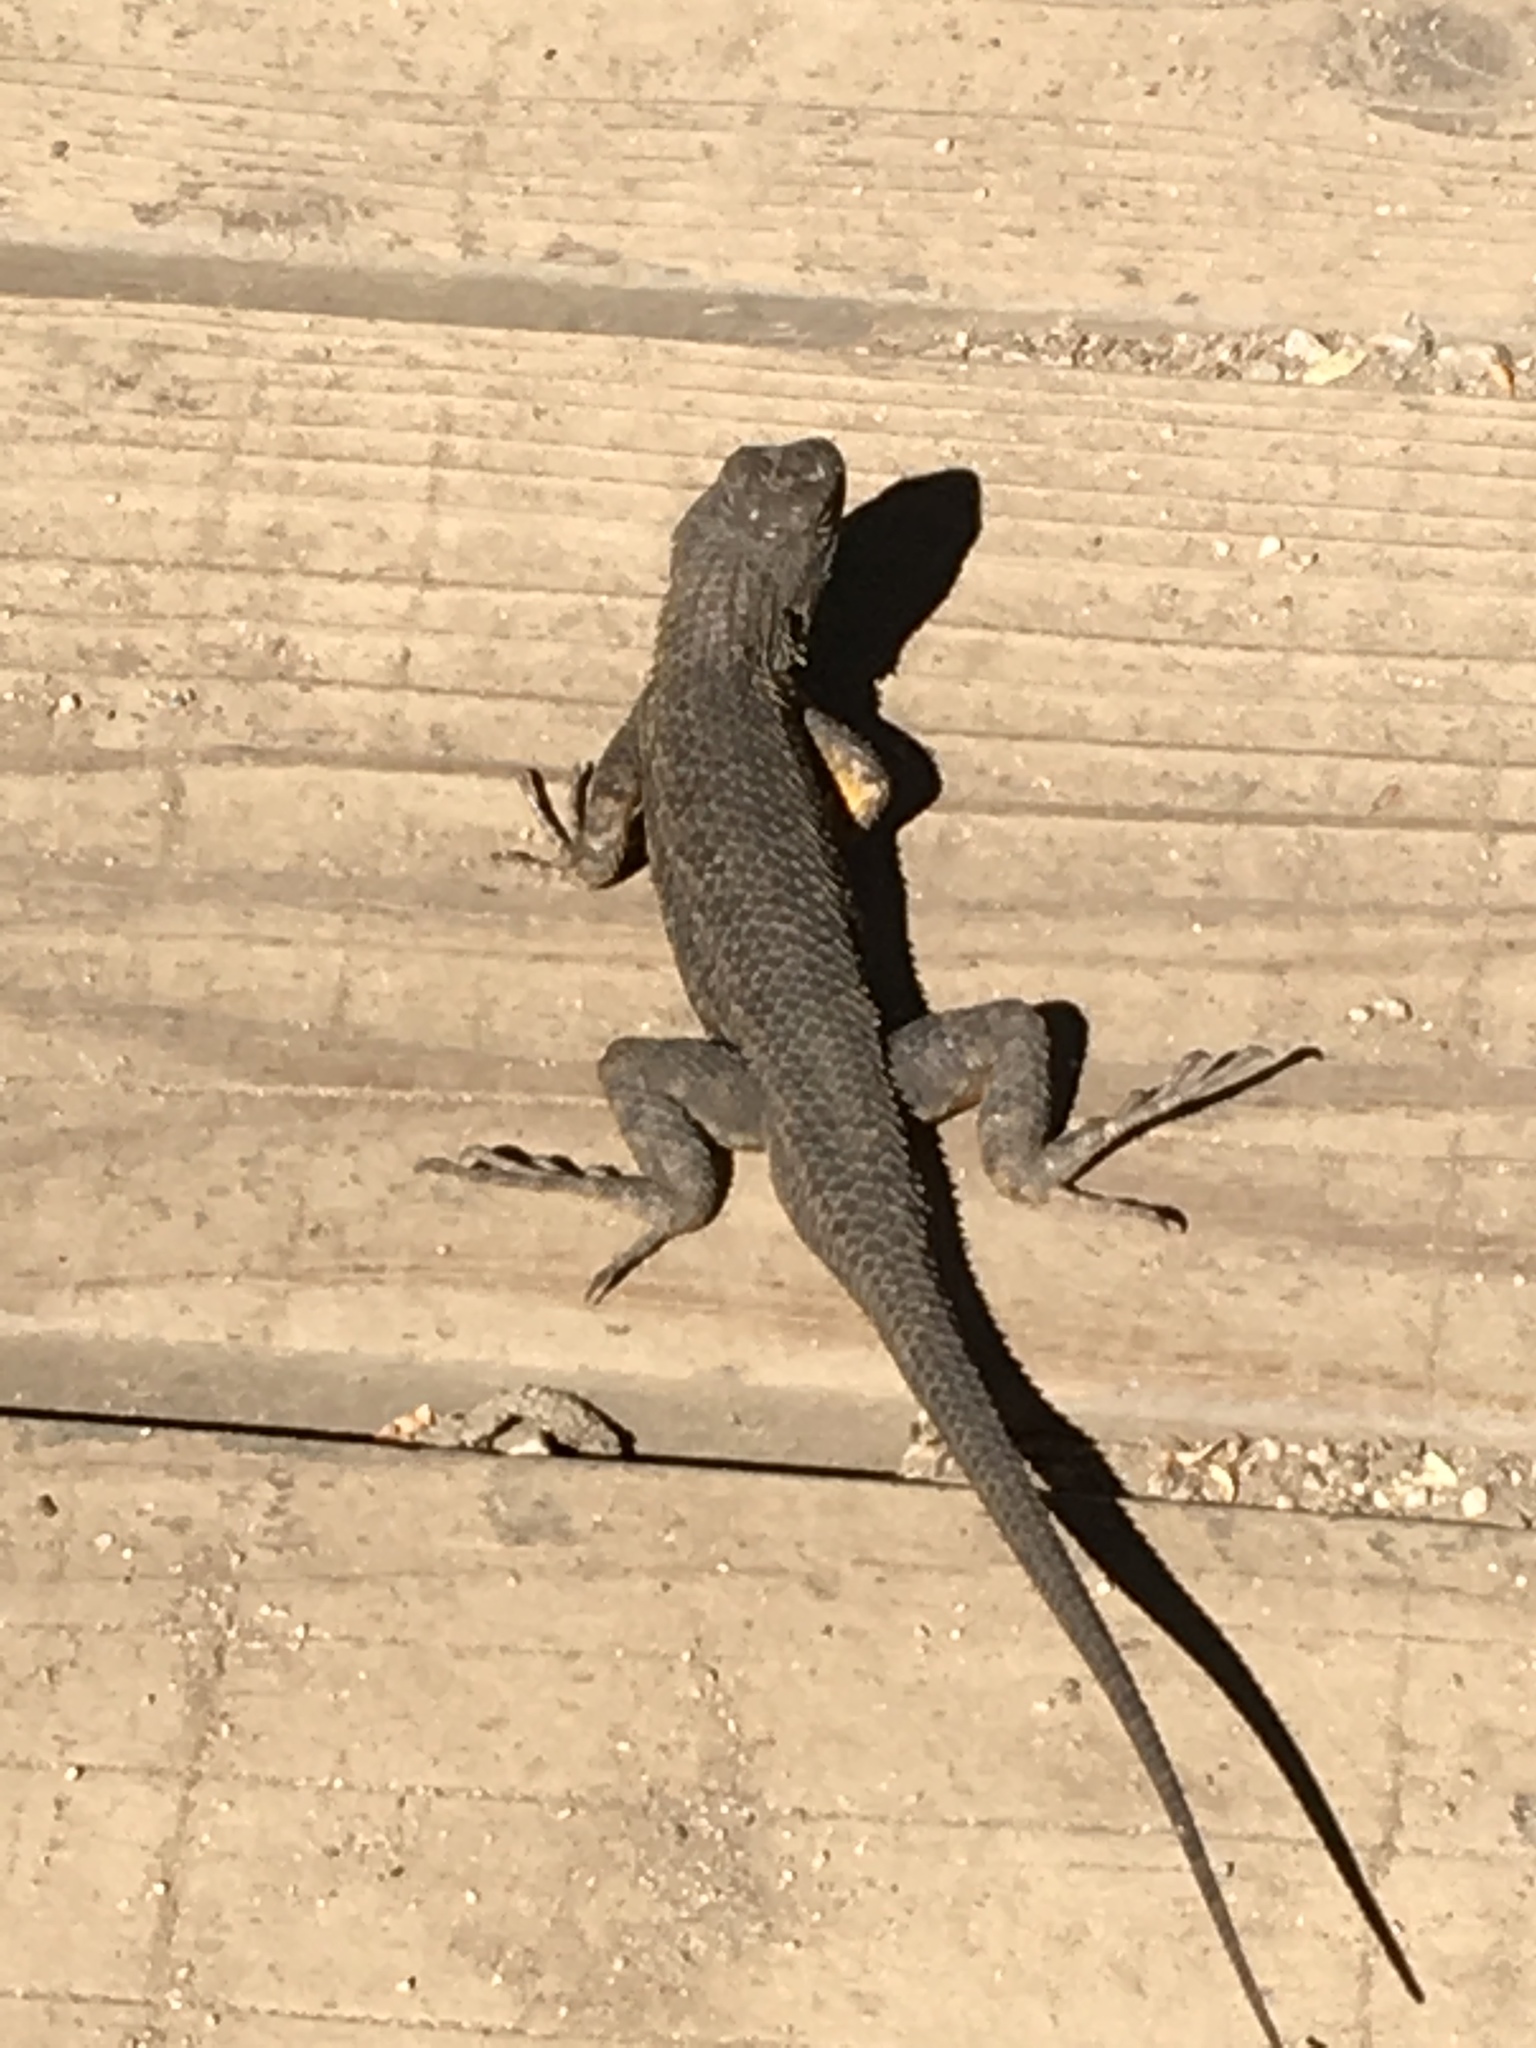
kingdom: Animalia
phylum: Chordata
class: Squamata
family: Phrynosomatidae
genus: Sceloporus
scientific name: Sceloporus occidentalis
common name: Western fence lizard
